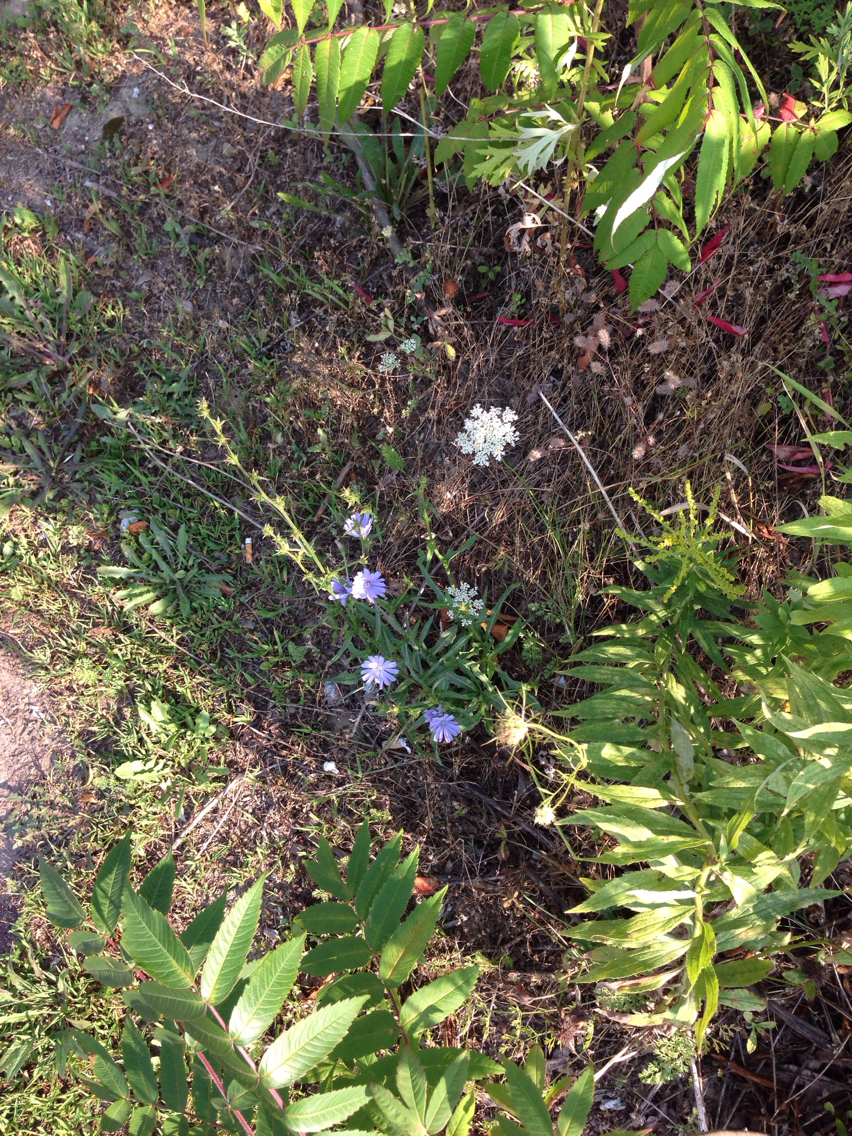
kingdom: Plantae
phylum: Tracheophyta
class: Magnoliopsida
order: Asterales
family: Asteraceae
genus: Cichorium
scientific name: Cichorium intybus
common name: Chicory
